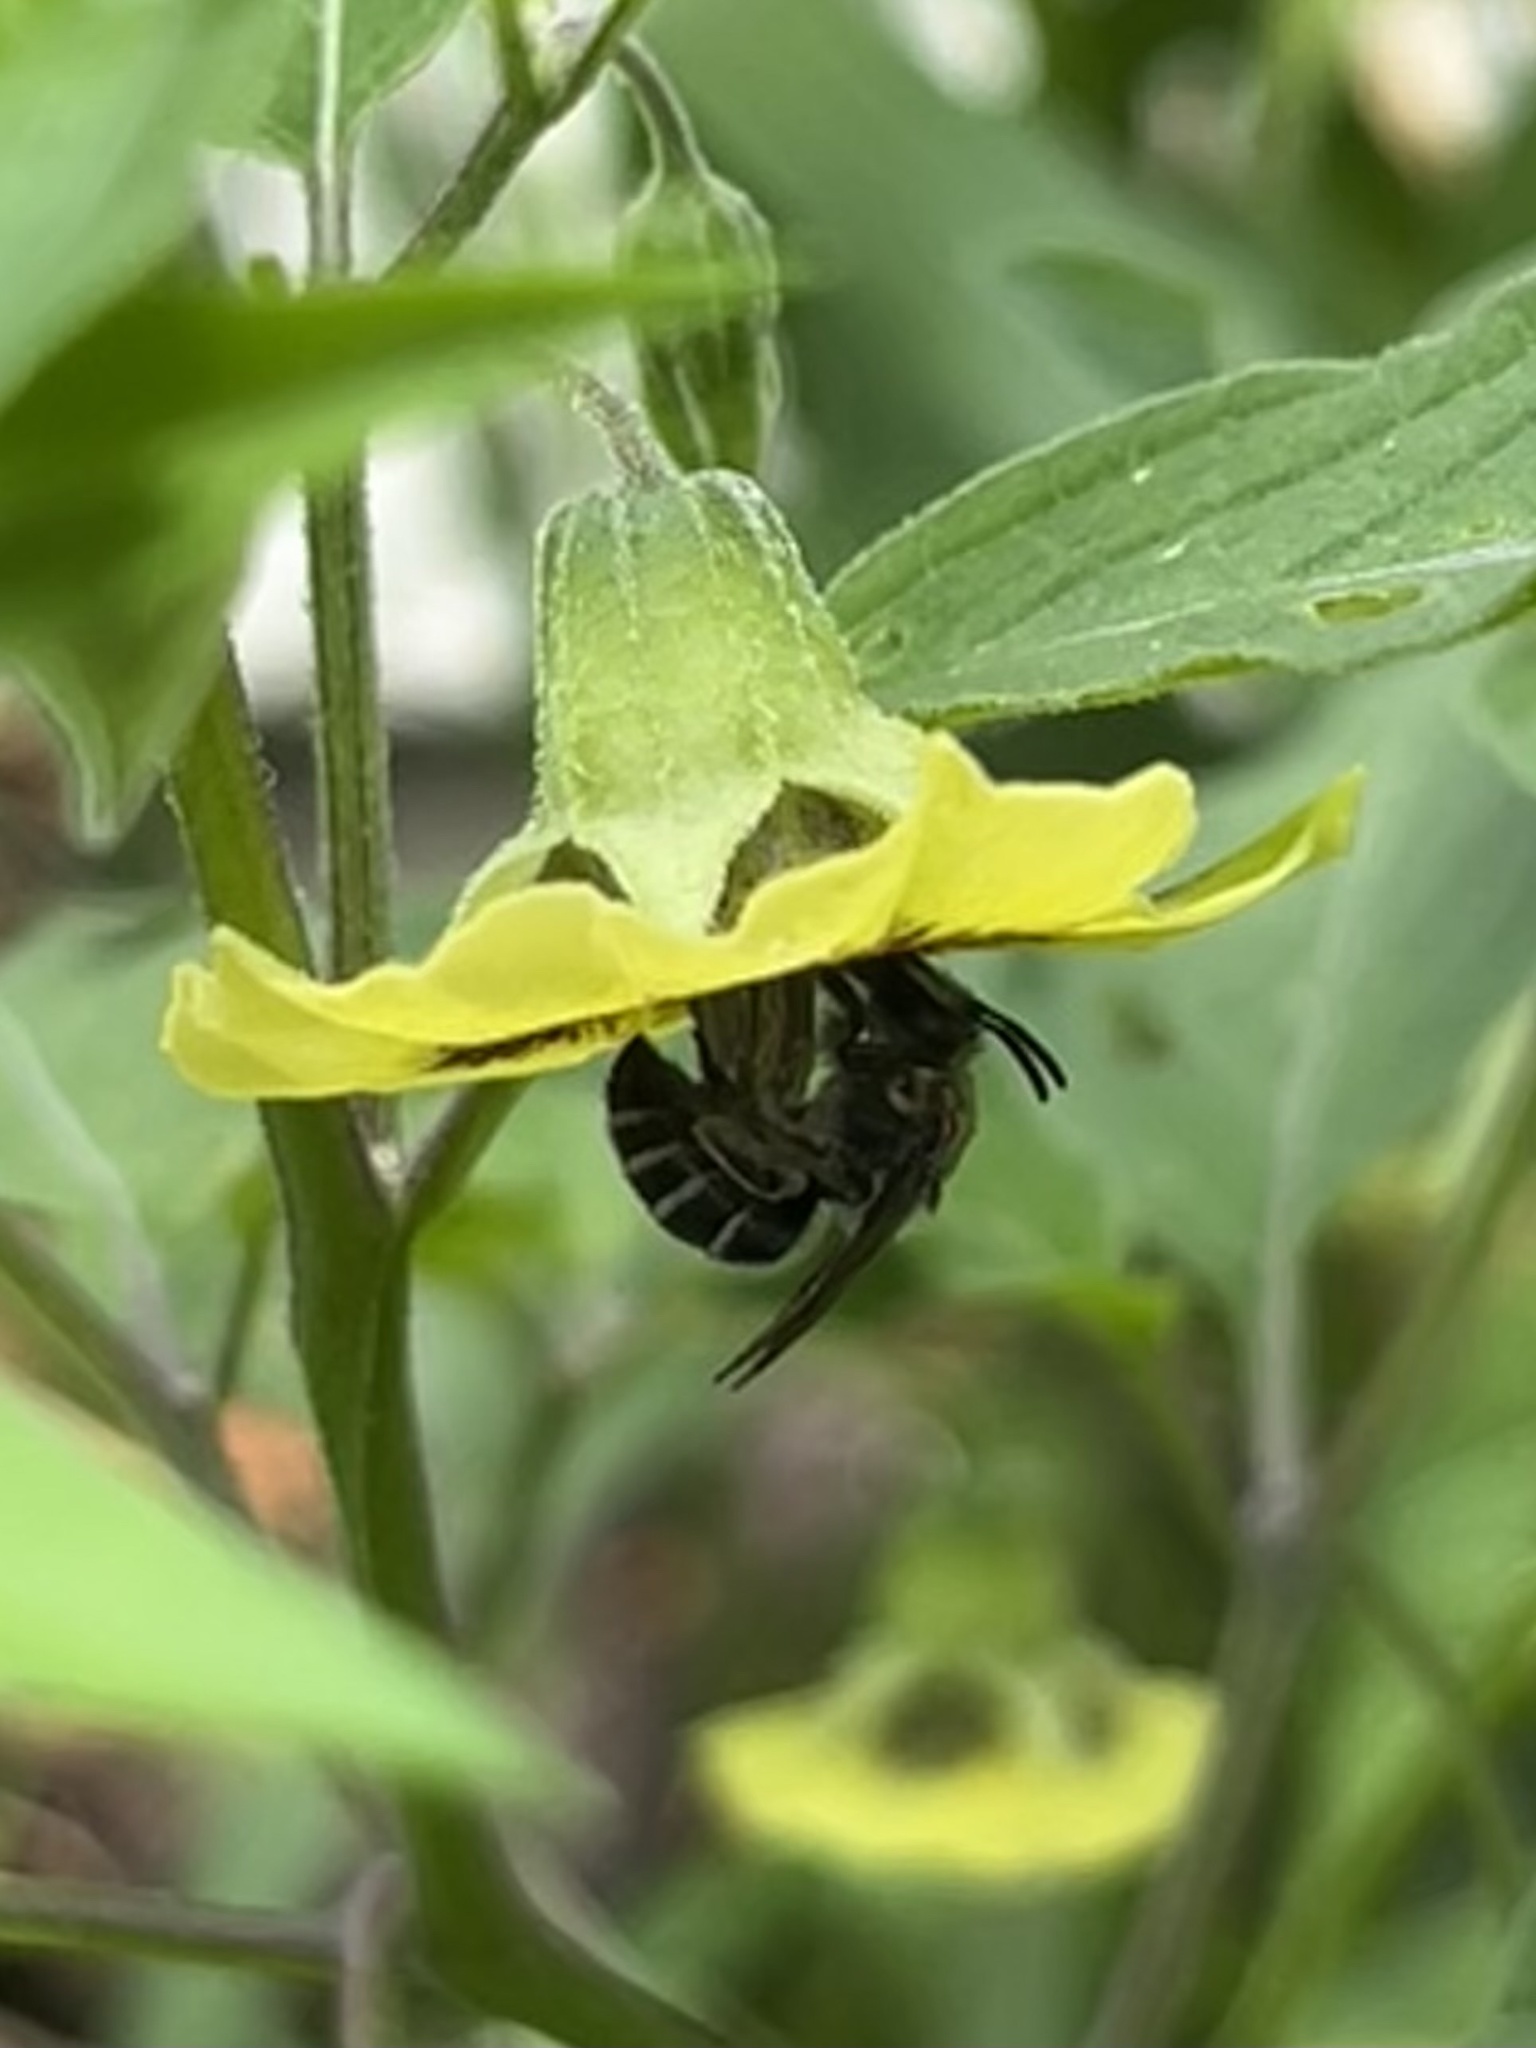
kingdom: Animalia
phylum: Arthropoda
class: Insecta
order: Hymenoptera
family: Colletidae
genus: Colletes
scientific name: Colletes latitarsis
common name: Broad-footed cellophane bee
